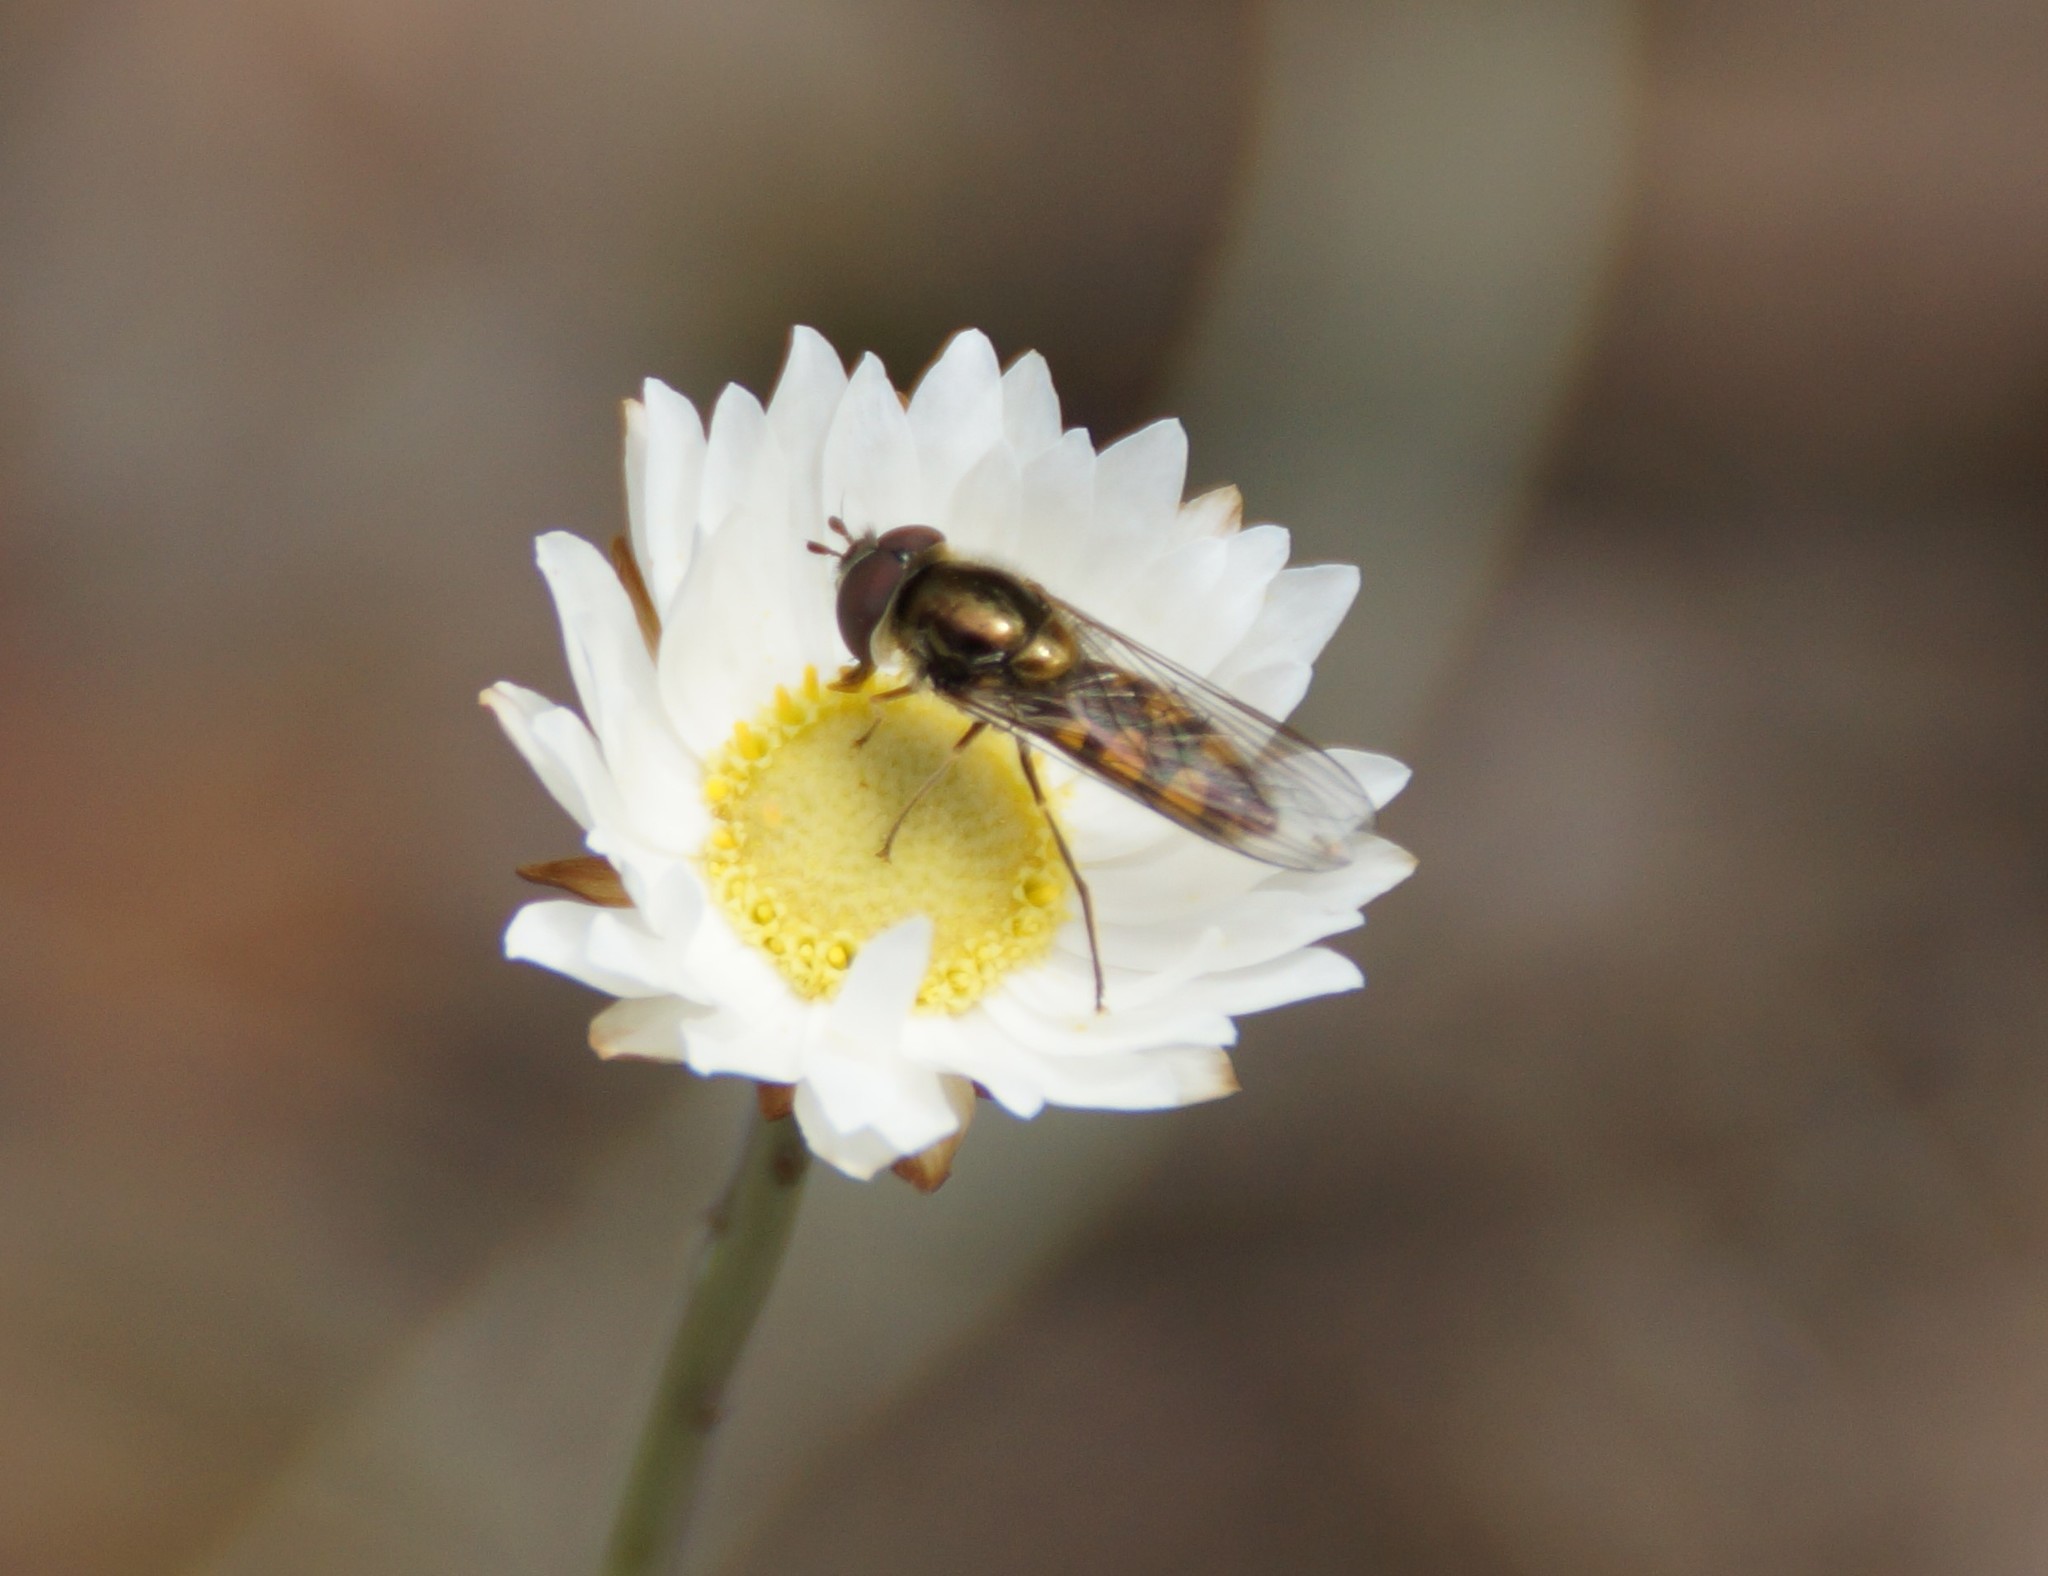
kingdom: Animalia
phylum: Arthropoda
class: Insecta
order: Diptera
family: Syrphidae
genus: Melangyna
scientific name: Melangyna viridiceps
